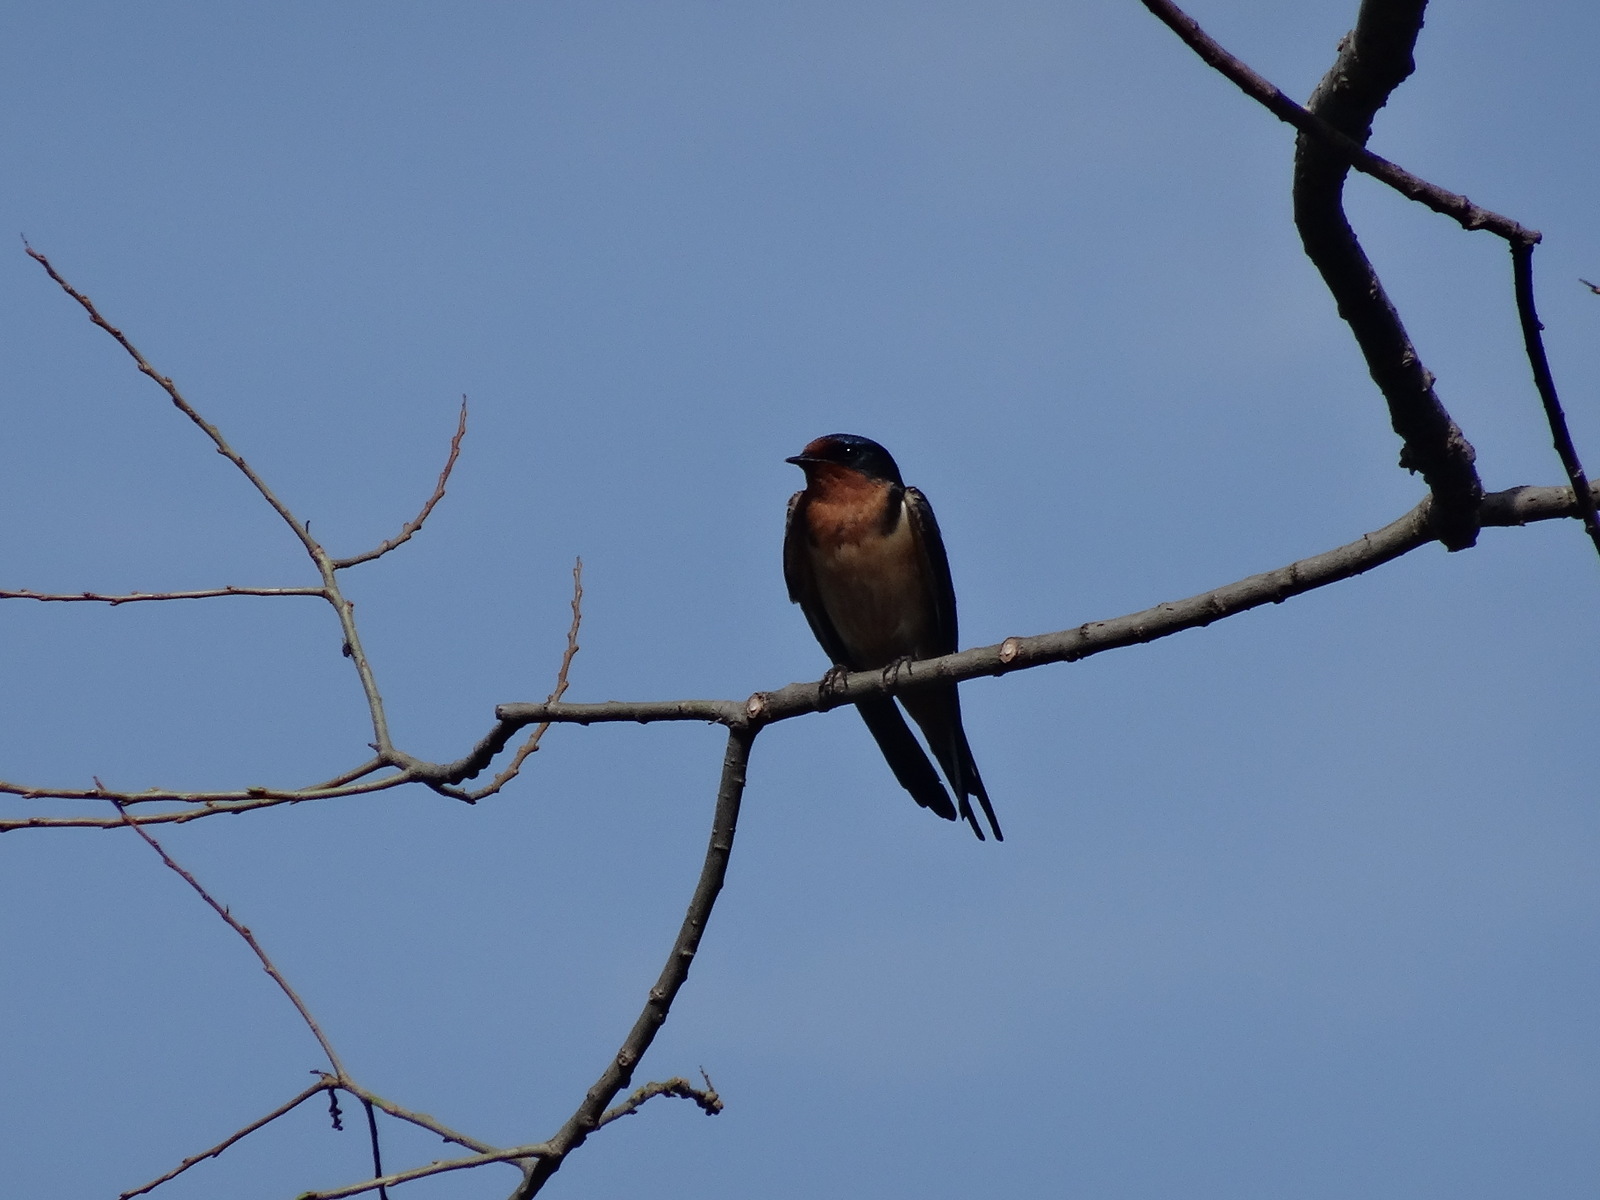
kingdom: Animalia
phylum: Chordata
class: Aves
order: Passeriformes
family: Hirundinidae
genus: Hirundo
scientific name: Hirundo rustica
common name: Barn swallow
